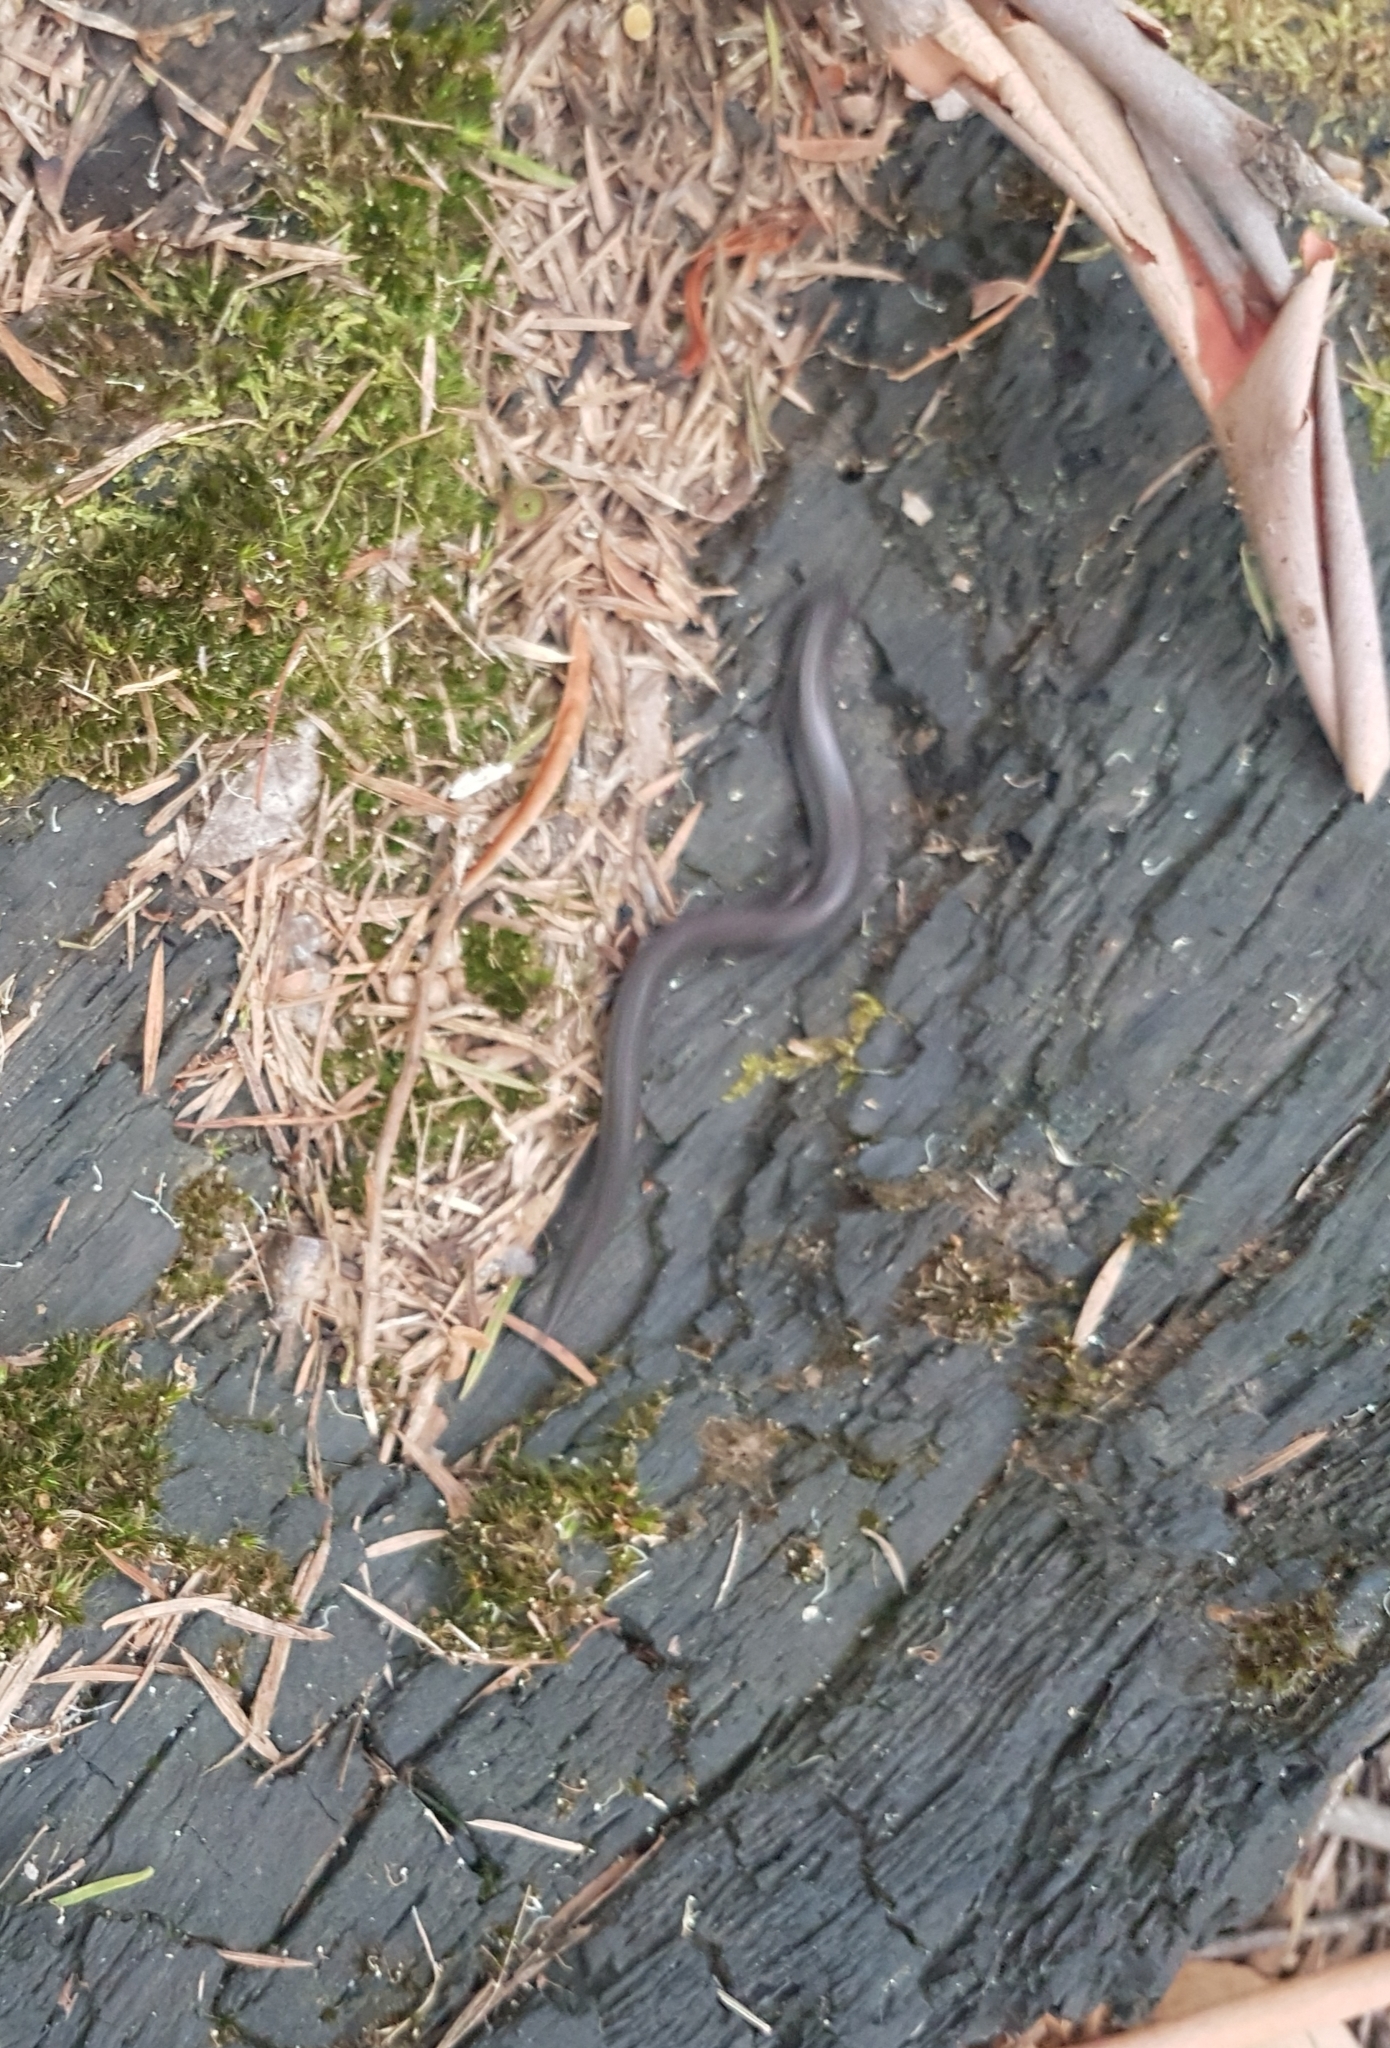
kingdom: Animalia
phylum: Chordata
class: Squamata
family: Scincidae
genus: Anepischetosia
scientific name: Anepischetosia maccoyi
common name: Highlands forest-skink
